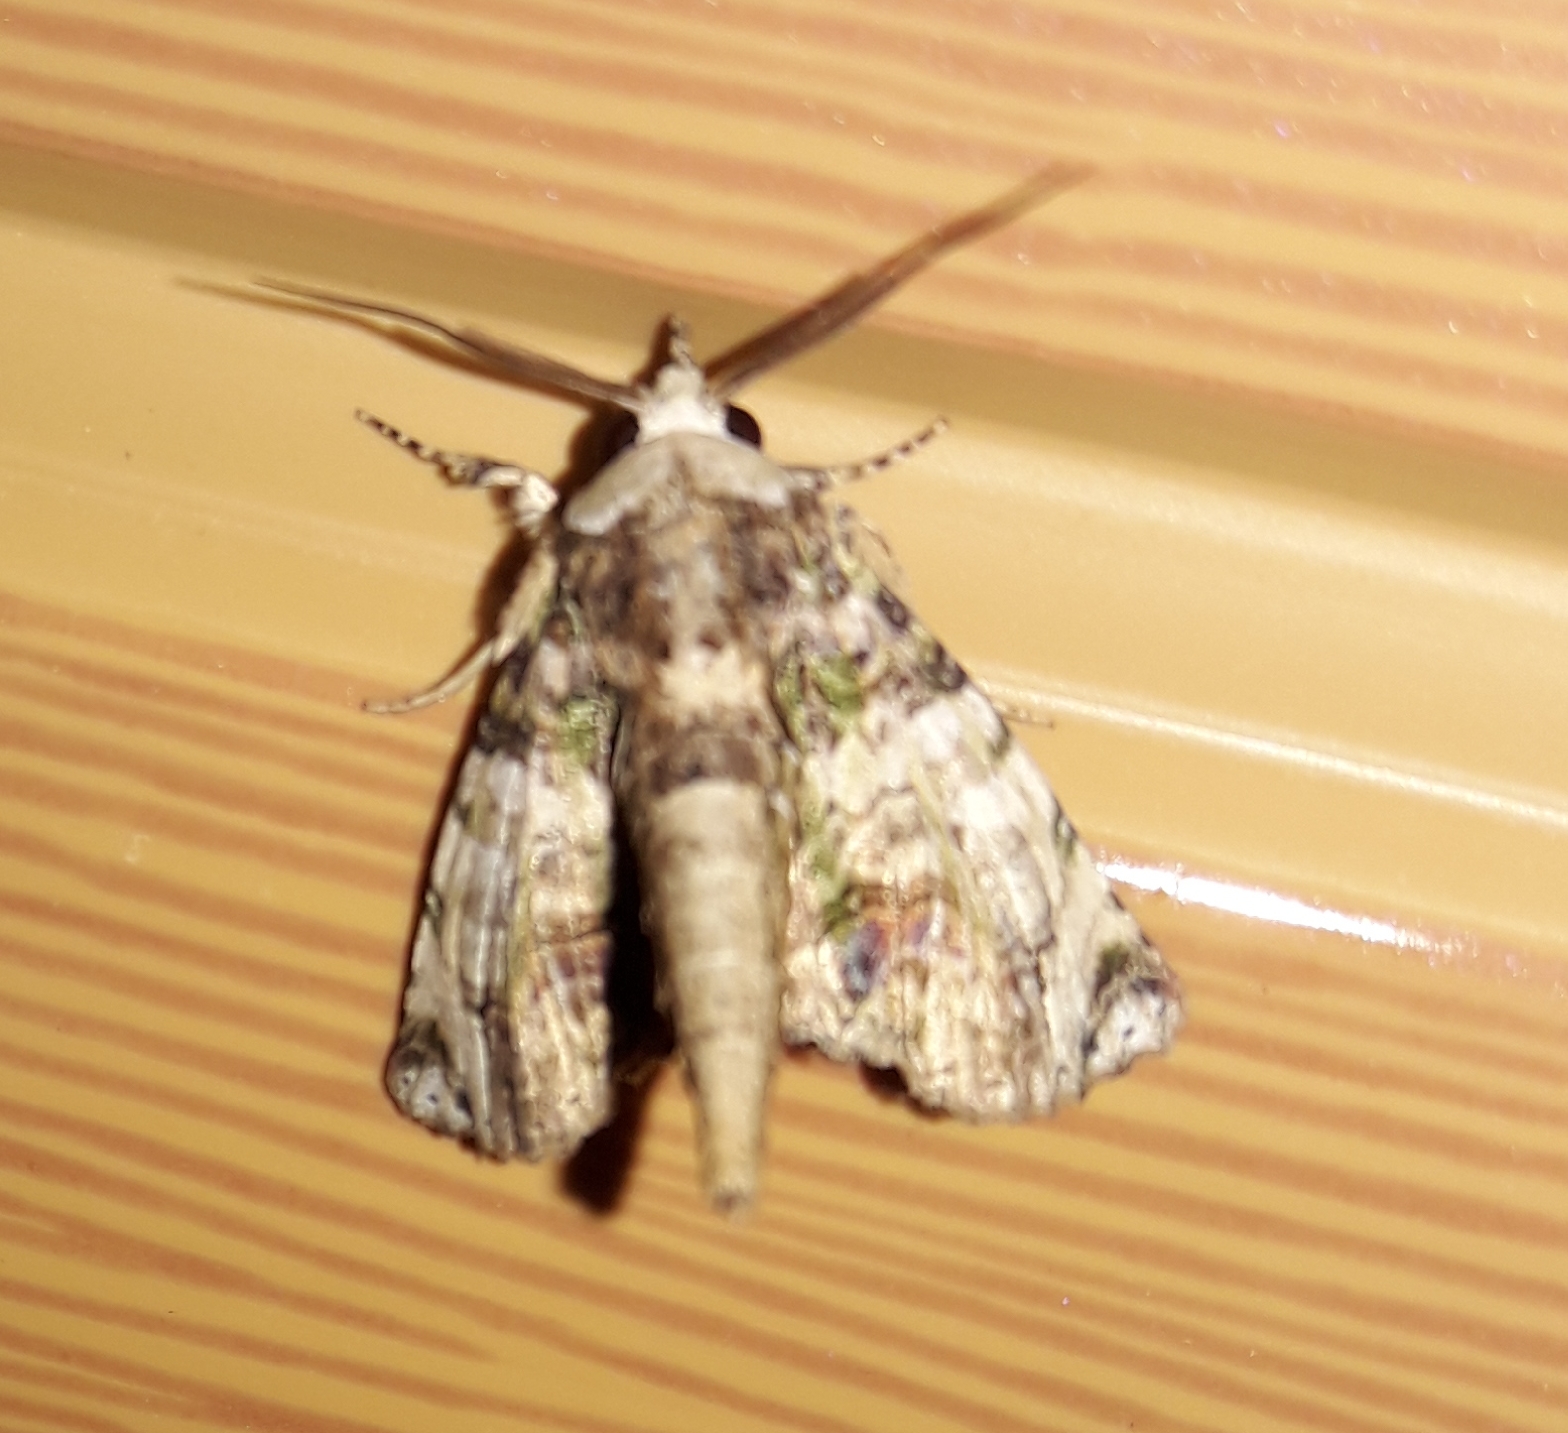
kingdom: Animalia
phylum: Arthropoda
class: Insecta
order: Lepidoptera
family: Euteliidae
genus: Paectes
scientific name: Paectes canofusa
